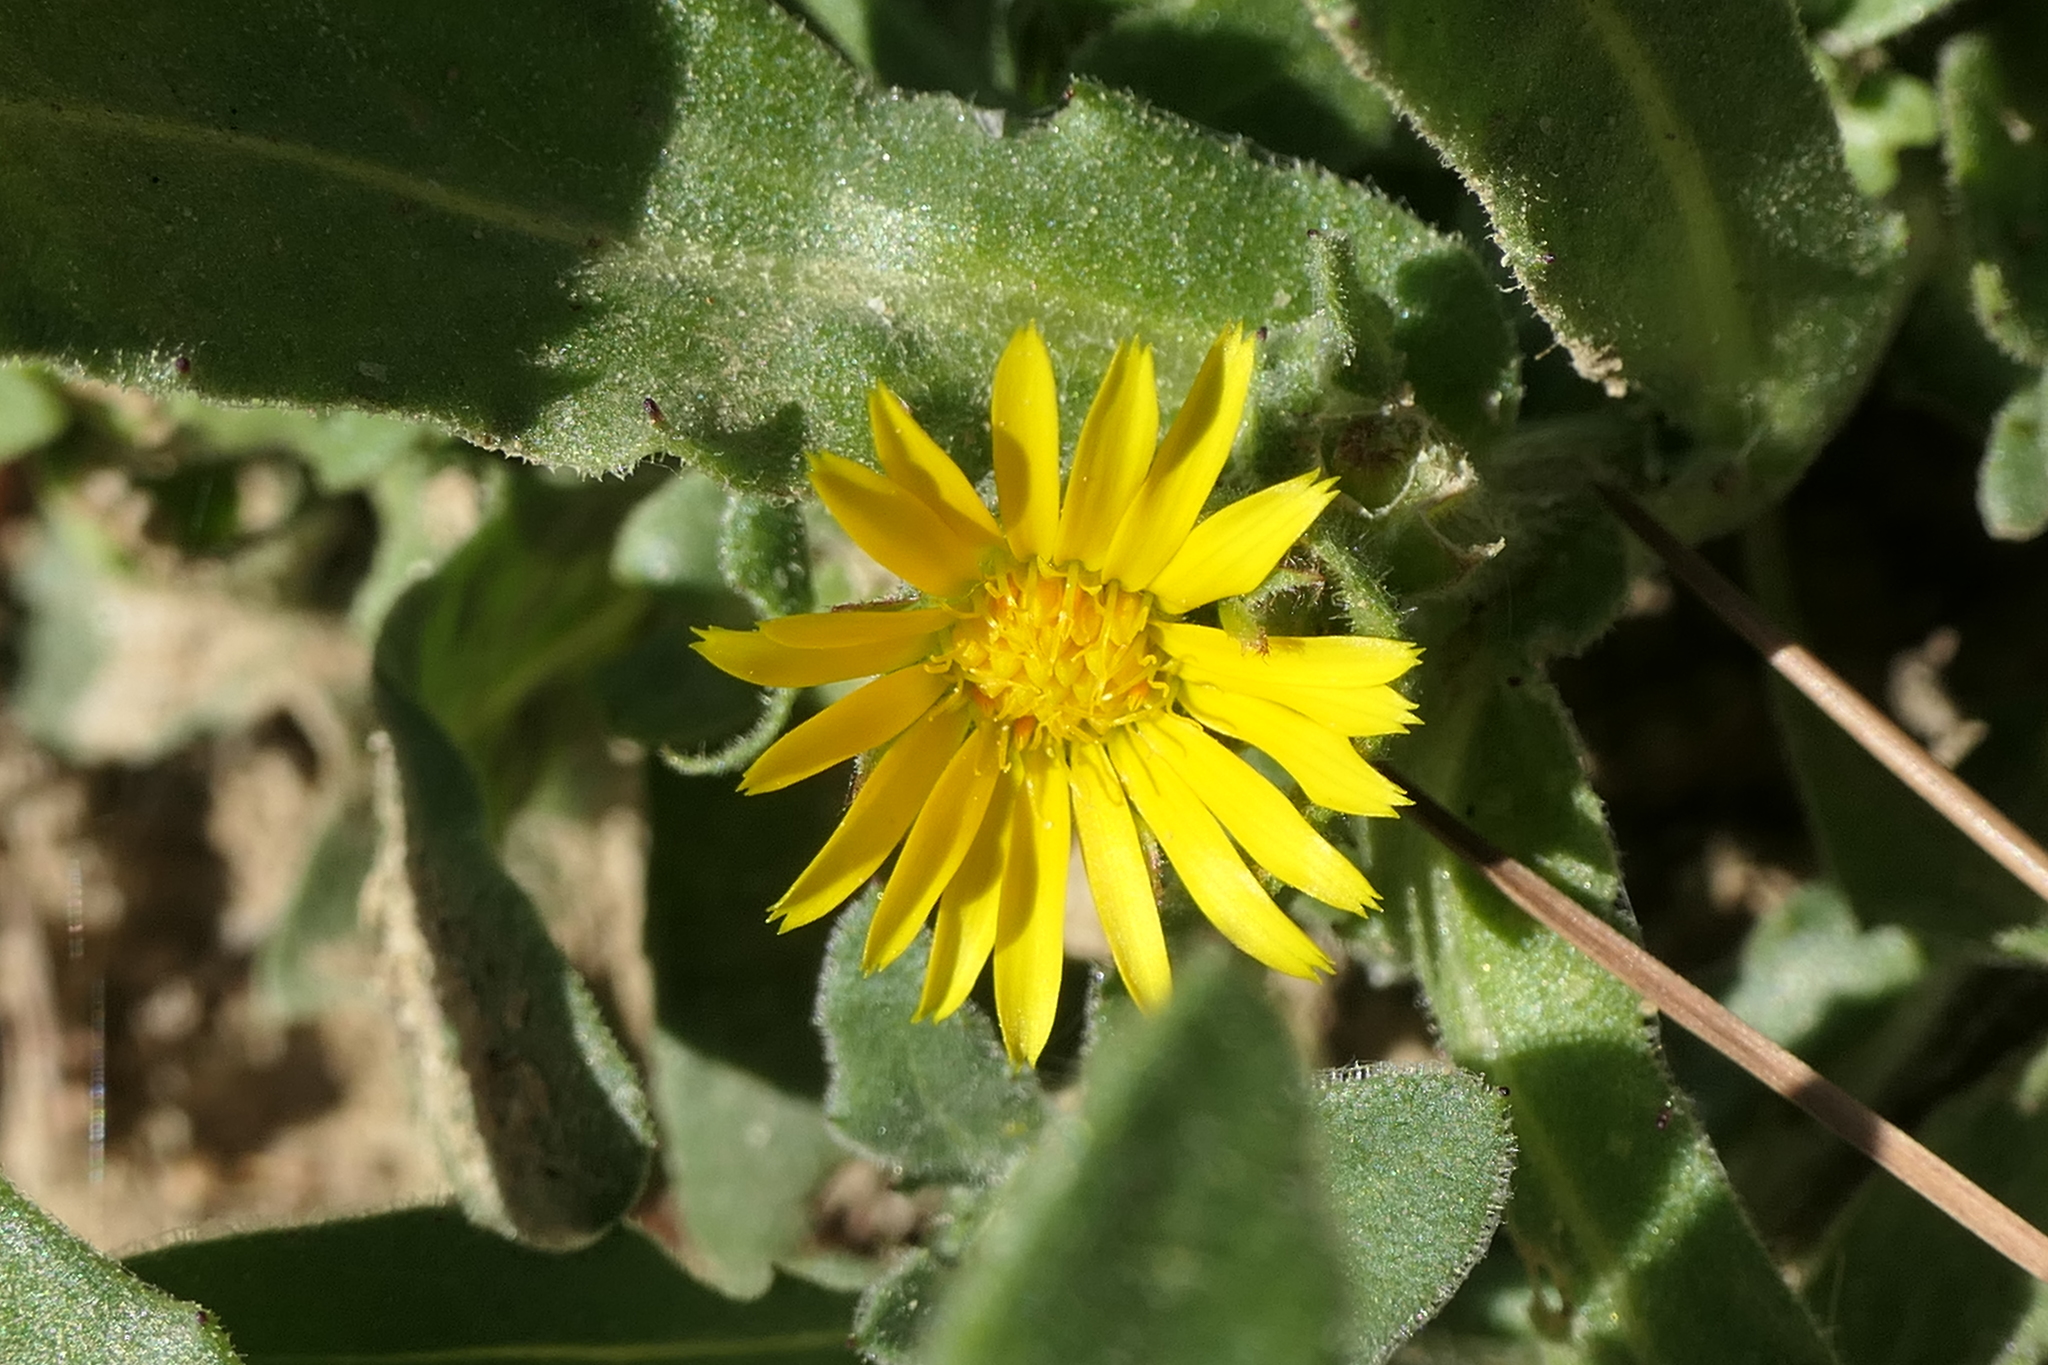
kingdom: Plantae
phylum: Tracheophyta
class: Magnoliopsida
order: Asterales
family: Asteraceae
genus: Calendula
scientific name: Calendula arvensis
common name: Field marigold
